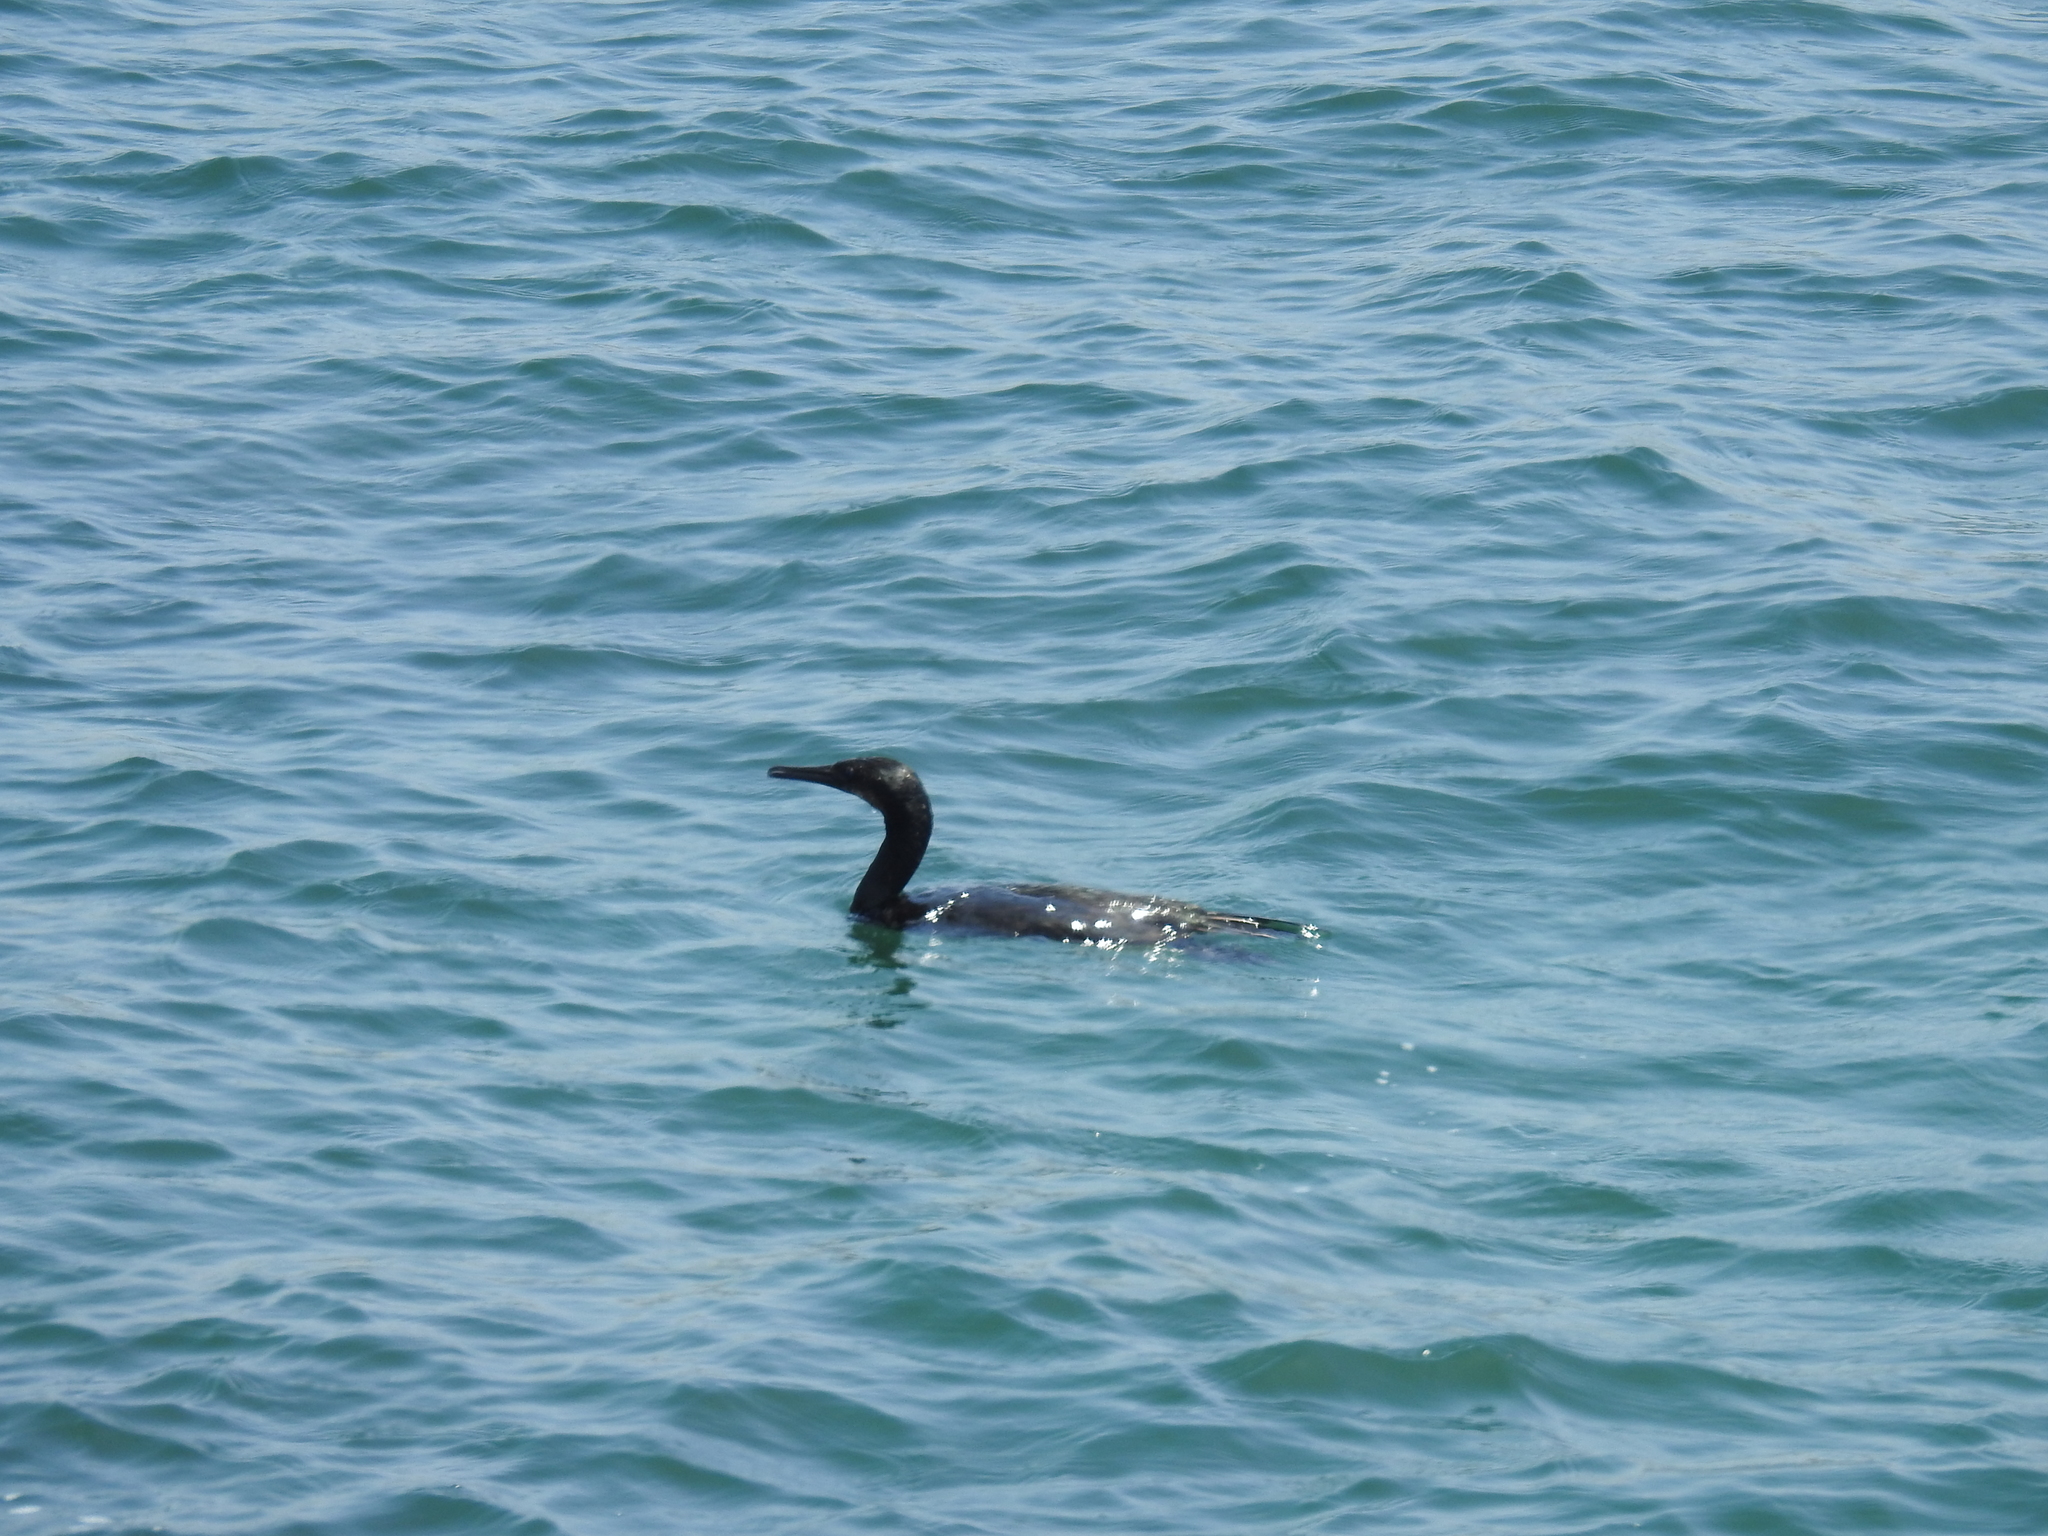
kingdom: Animalia
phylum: Chordata
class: Aves
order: Suliformes
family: Phalacrocoracidae
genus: Urile
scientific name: Urile penicillatus
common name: Brandt's cormorant
